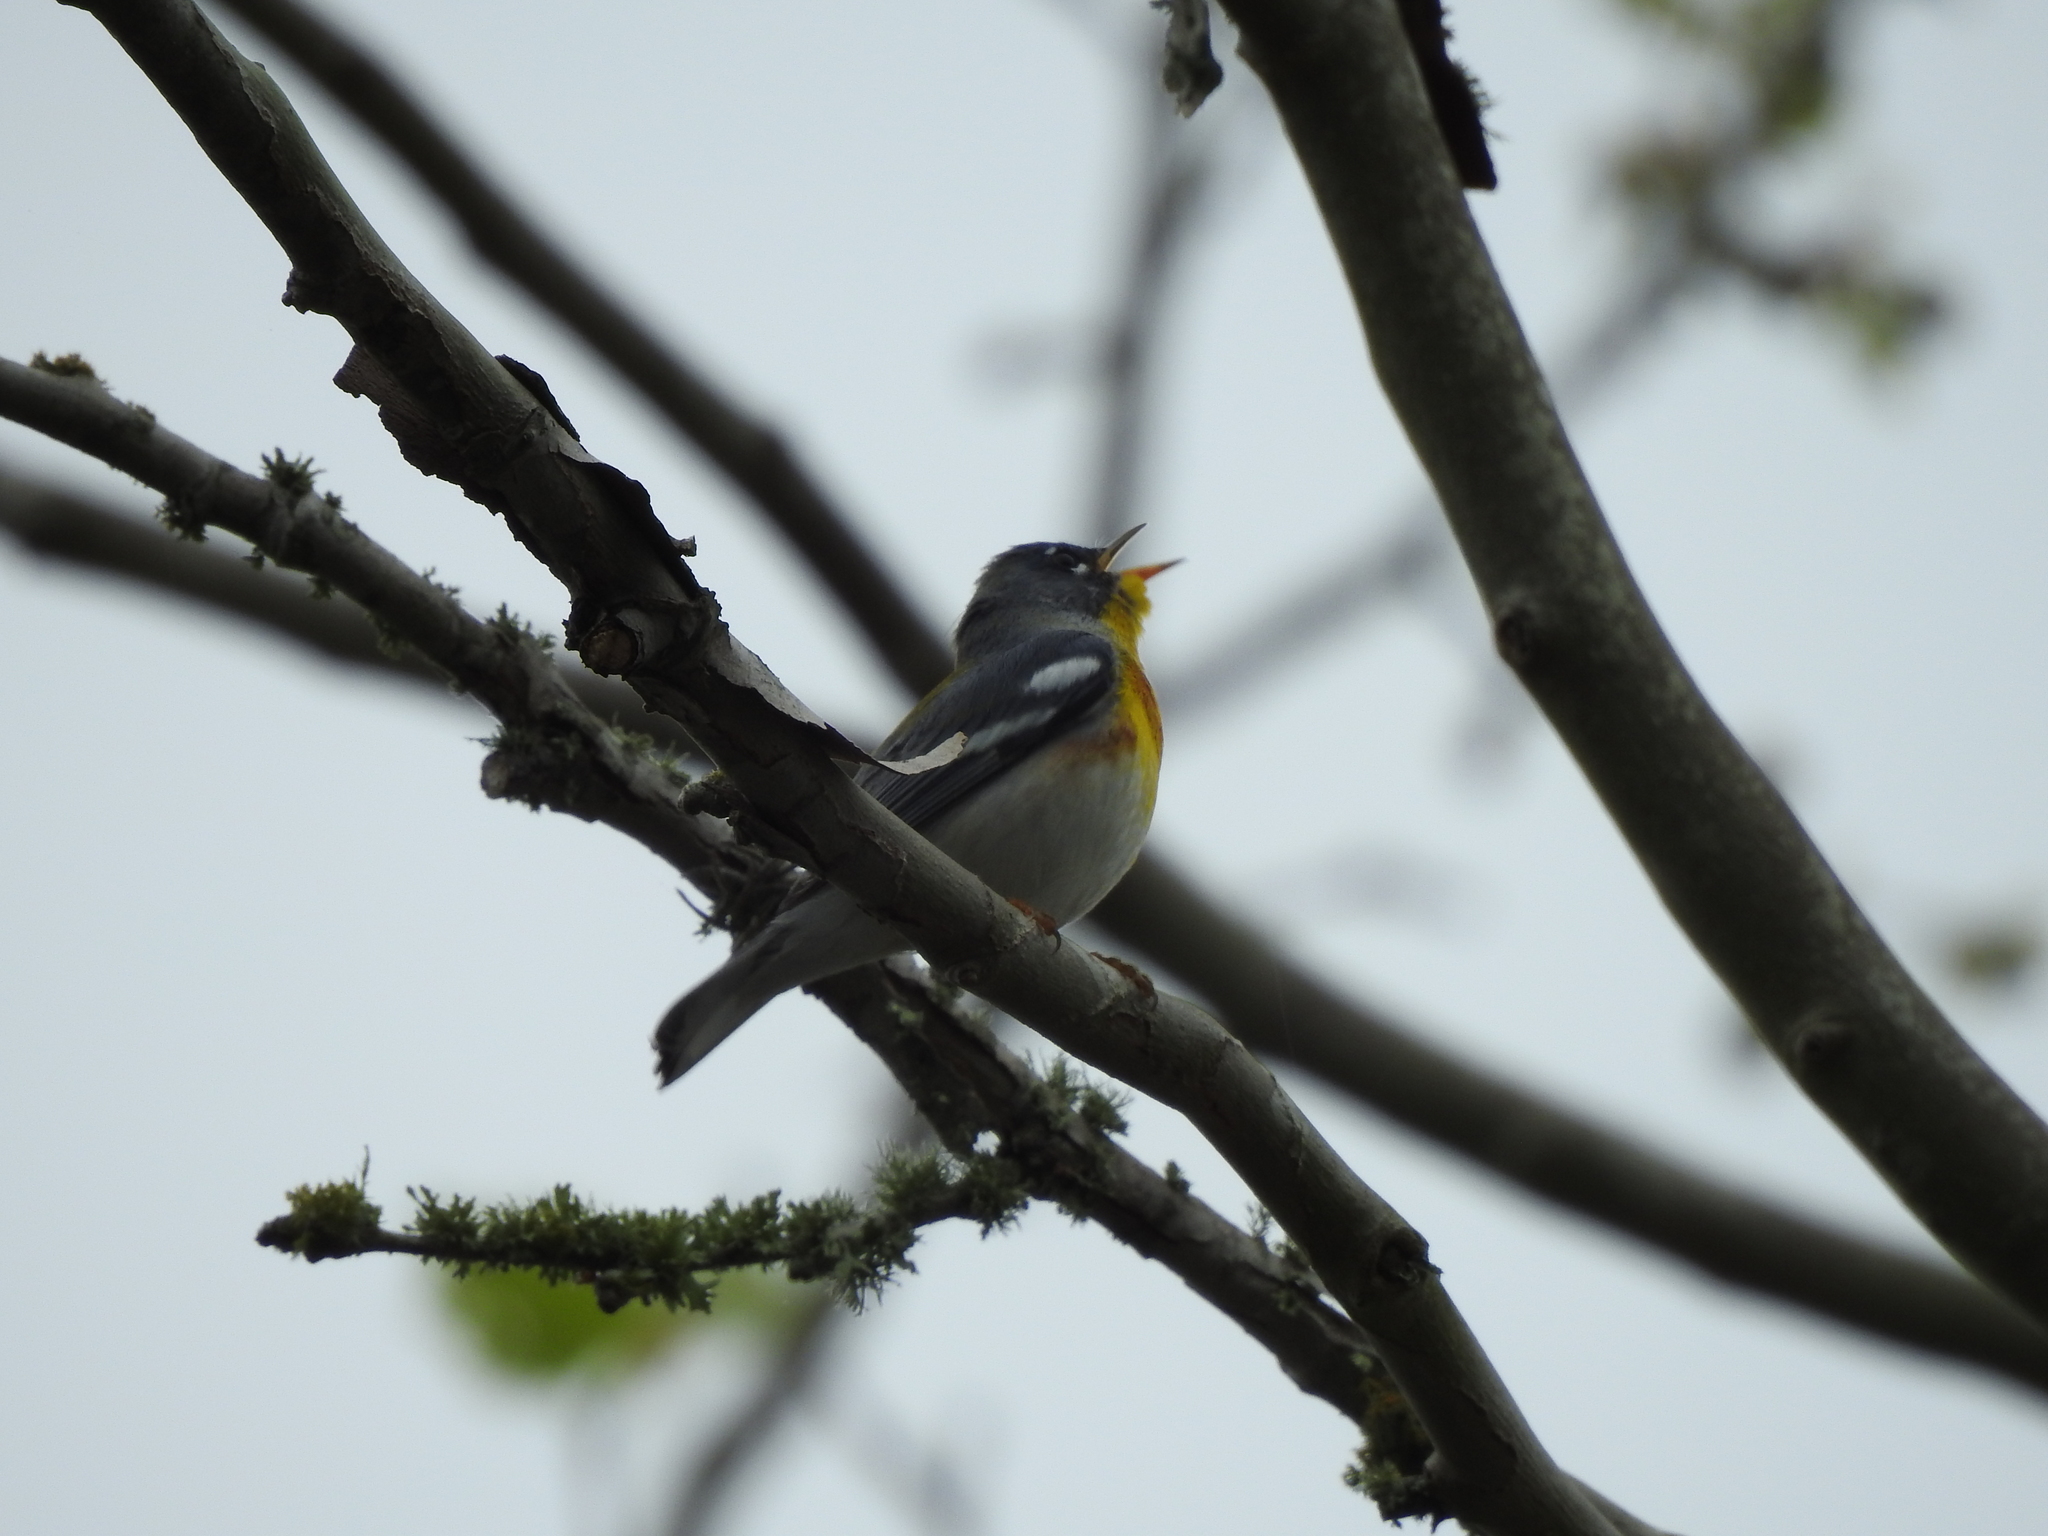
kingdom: Animalia
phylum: Chordata
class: Aves
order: Passeriformes
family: Parulidae
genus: Setophaga
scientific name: Setophaga americana
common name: Northern parula
